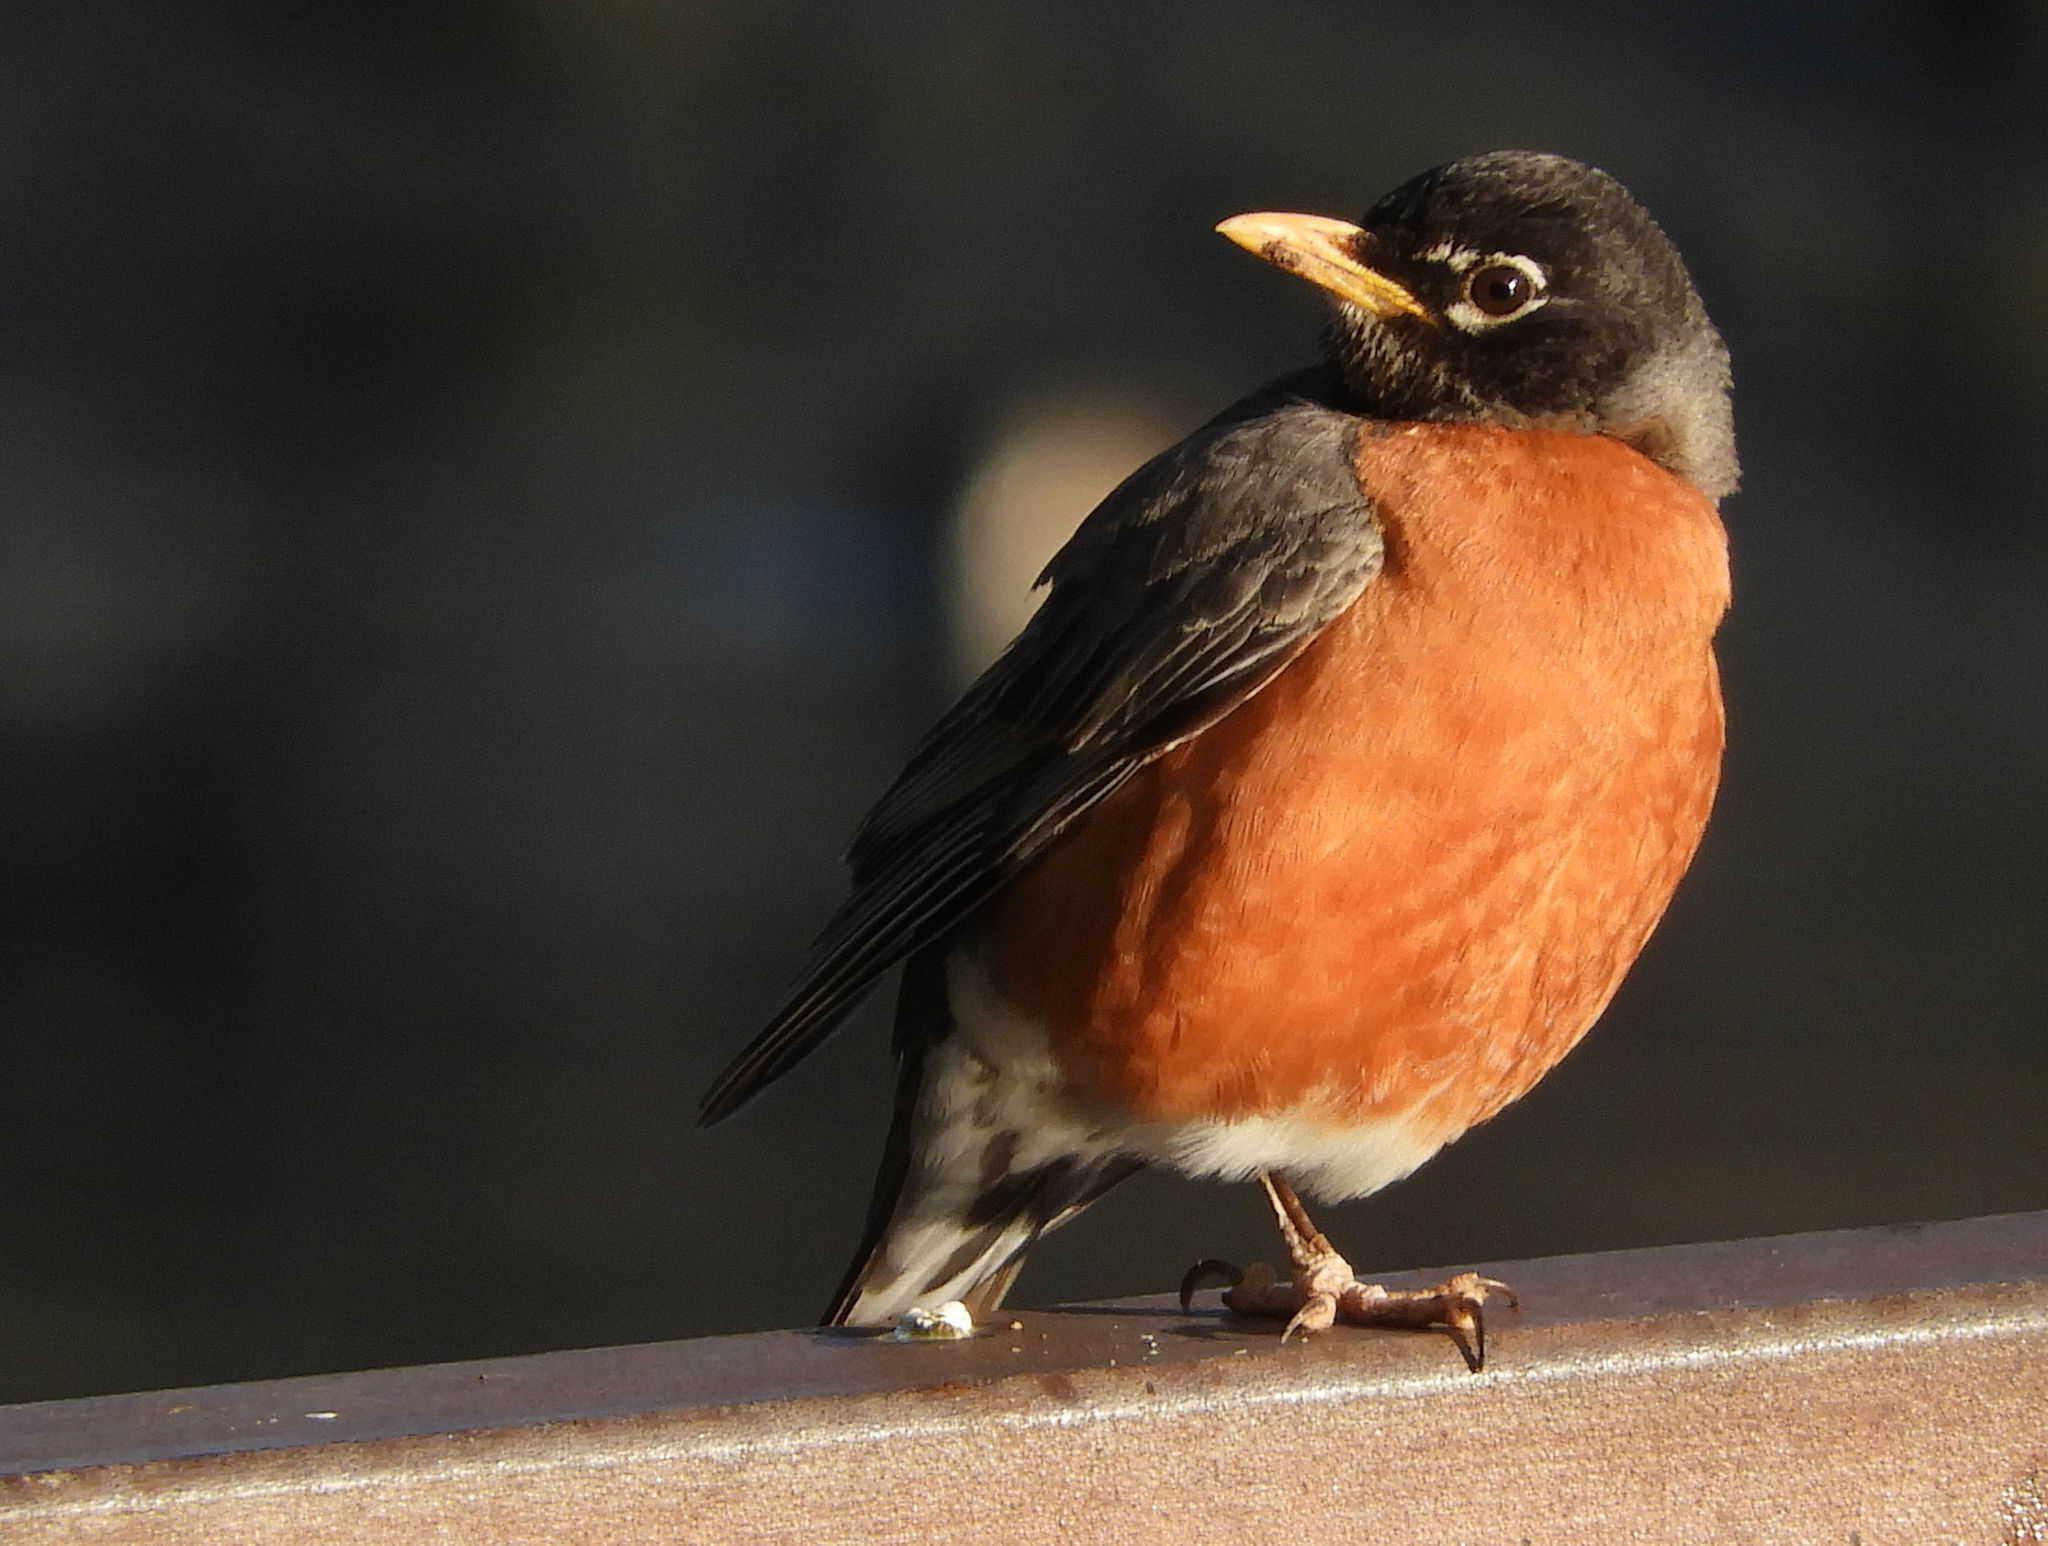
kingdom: Animalia
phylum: Chordata
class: Aves
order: Passeriformes
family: Turdidae
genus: Turdus
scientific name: Turdus migratorius
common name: American robin
